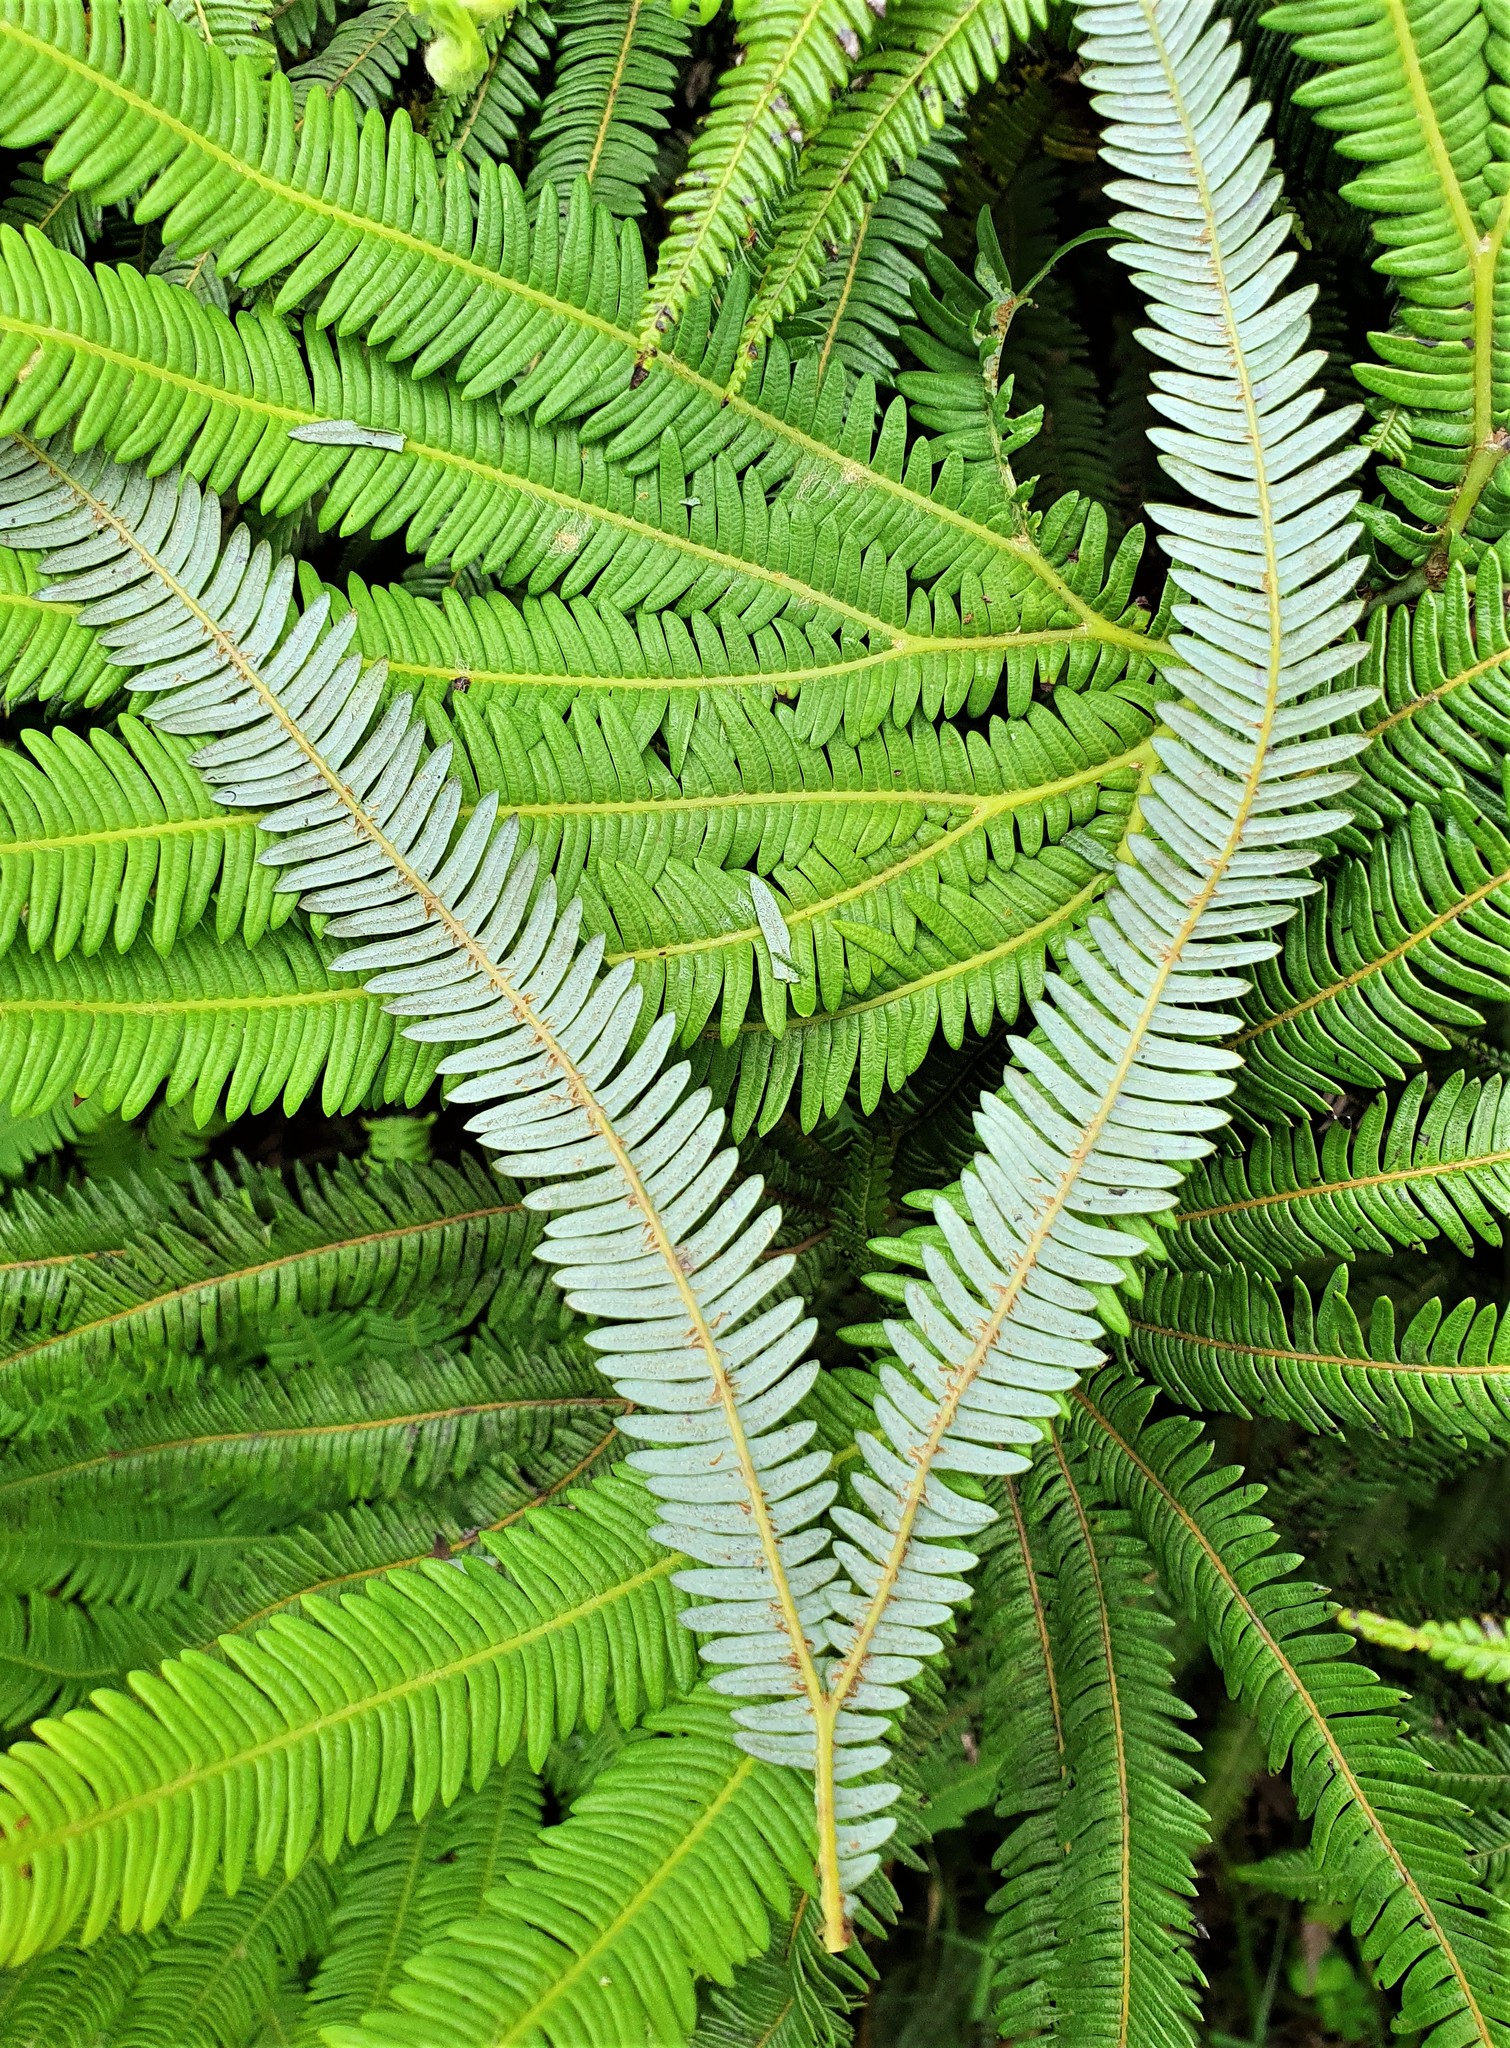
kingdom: Plantae
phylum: Tracheophyta
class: Polypodiopsida
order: Gleicheniales
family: Gleicheniaceae
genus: Sticherus
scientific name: Sticherus cunninghamii
